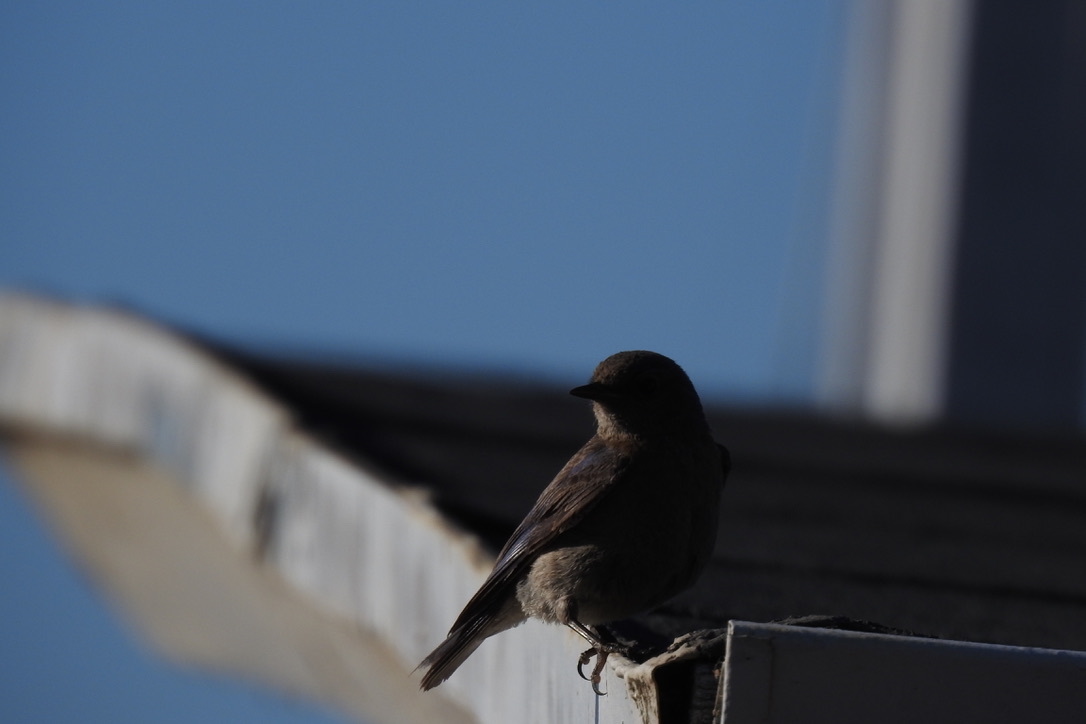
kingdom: Animalia
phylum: Chordata
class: Aves
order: Passeriformes
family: Turdidae
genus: Sialia
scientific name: Sialia mexicana
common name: Western bluebird
